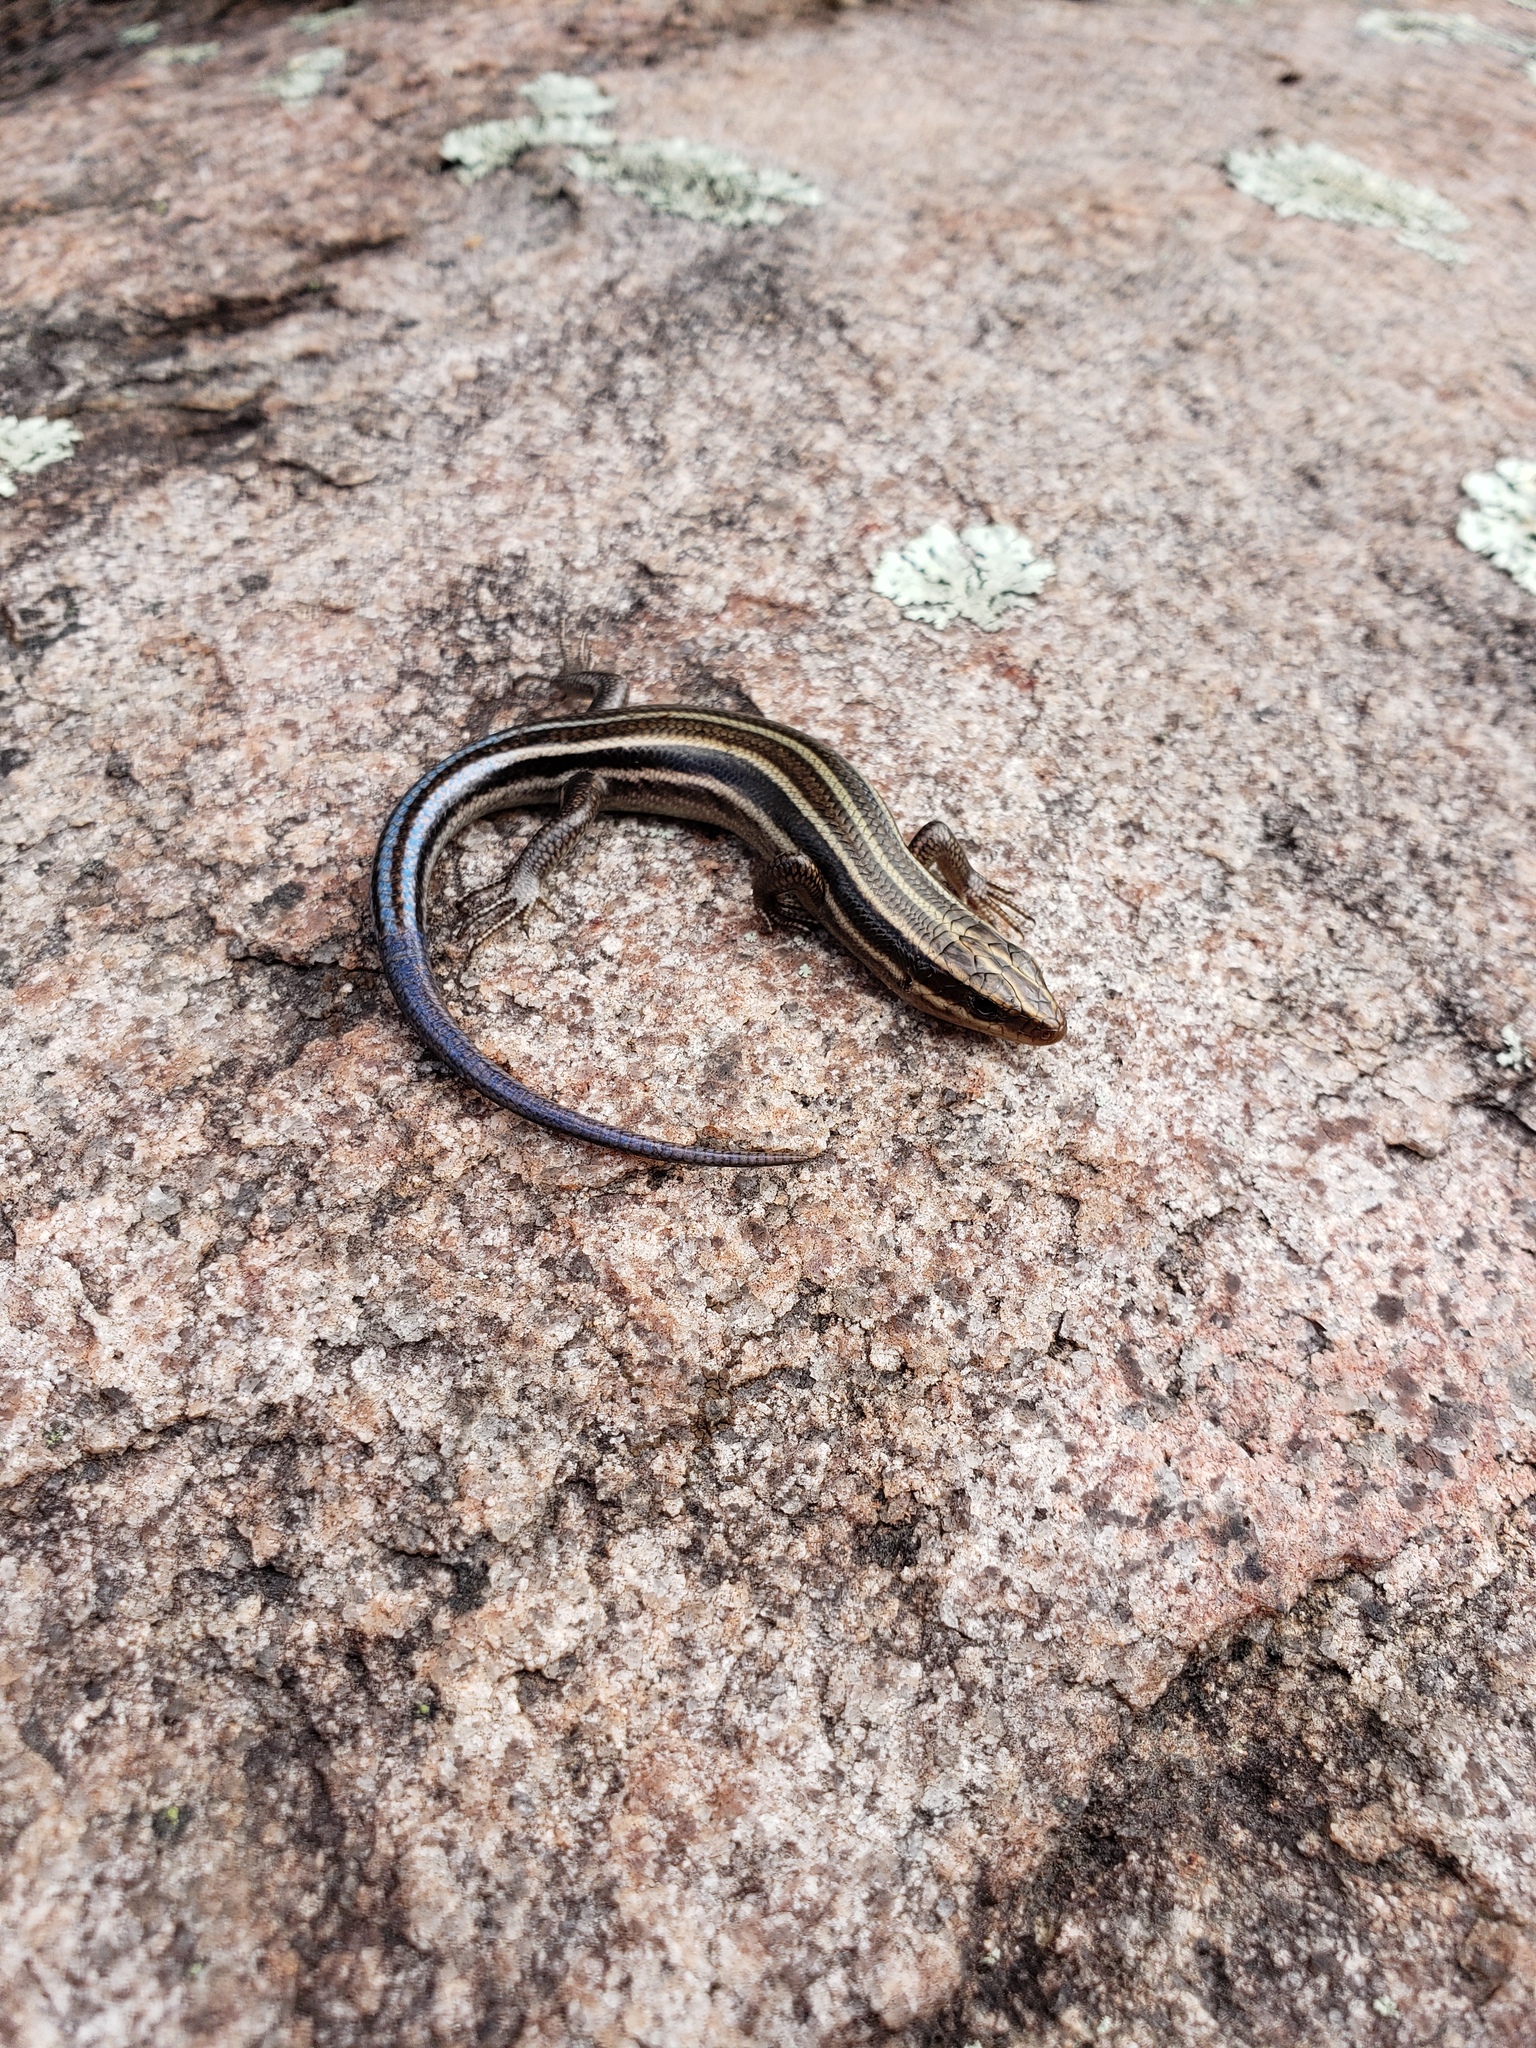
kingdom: Animalia
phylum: Chordata
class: Squamata
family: Scincidae
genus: Plestiodon
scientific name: Plestiodon fasciatus
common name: Five-lined skink
